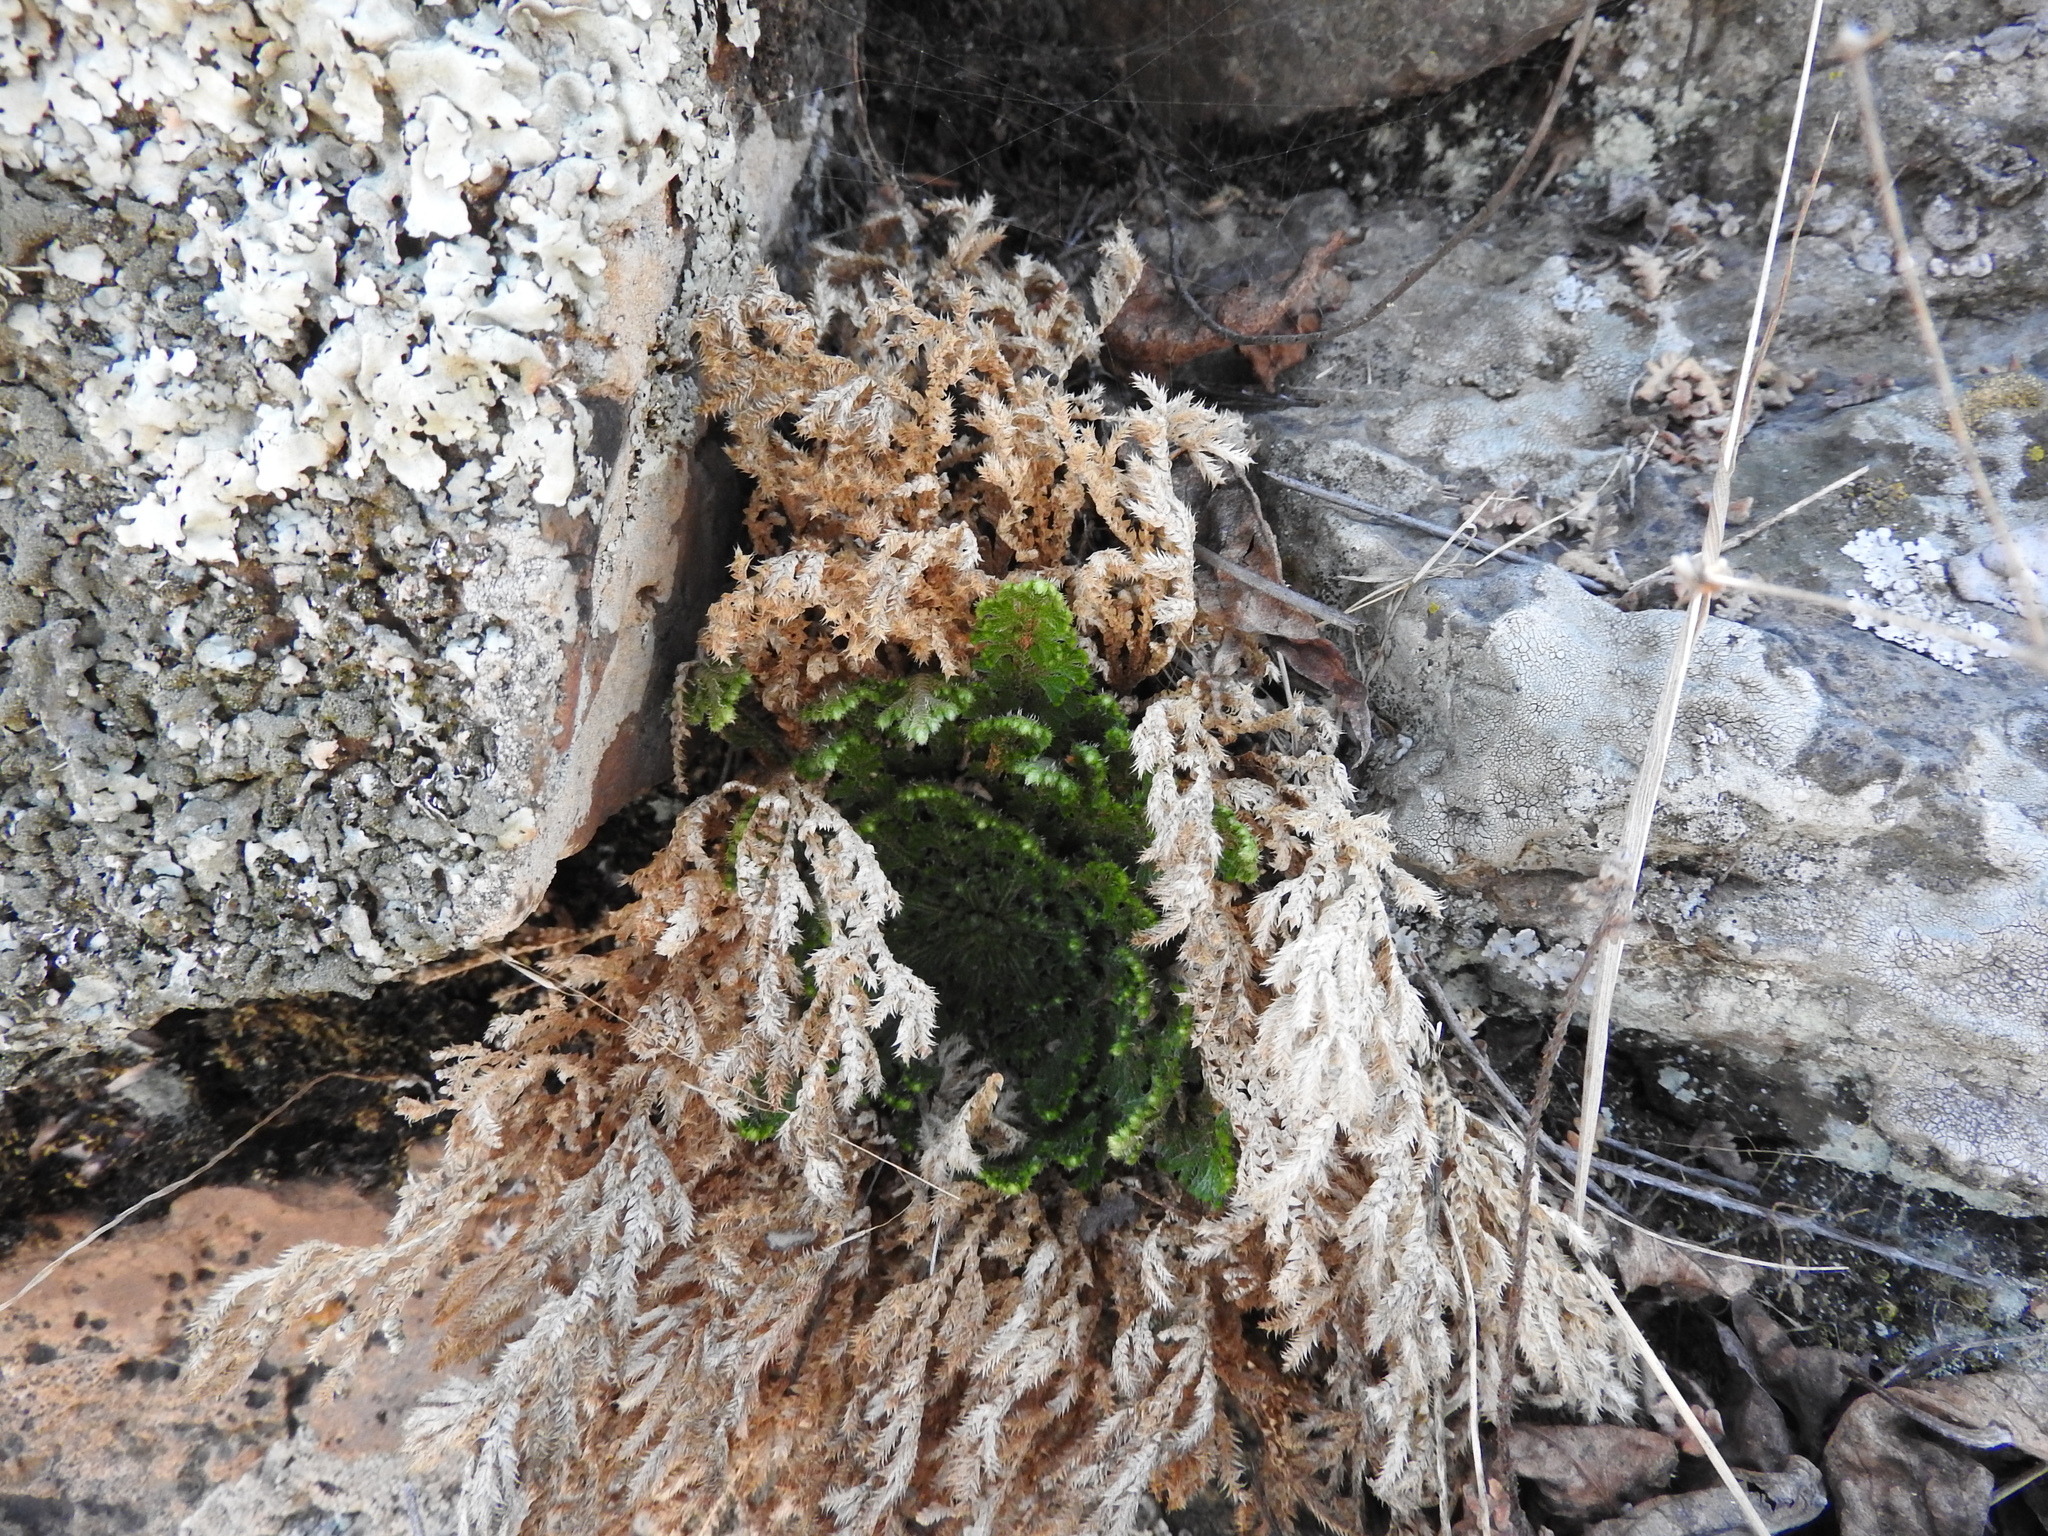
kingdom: Plantae
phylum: Tracheophyta
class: Lycopodiopsida
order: Selaginellales
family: Selaginellaceae
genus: Selaginella
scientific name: Selaginella lepidophylla
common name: Rose-of-jericho
